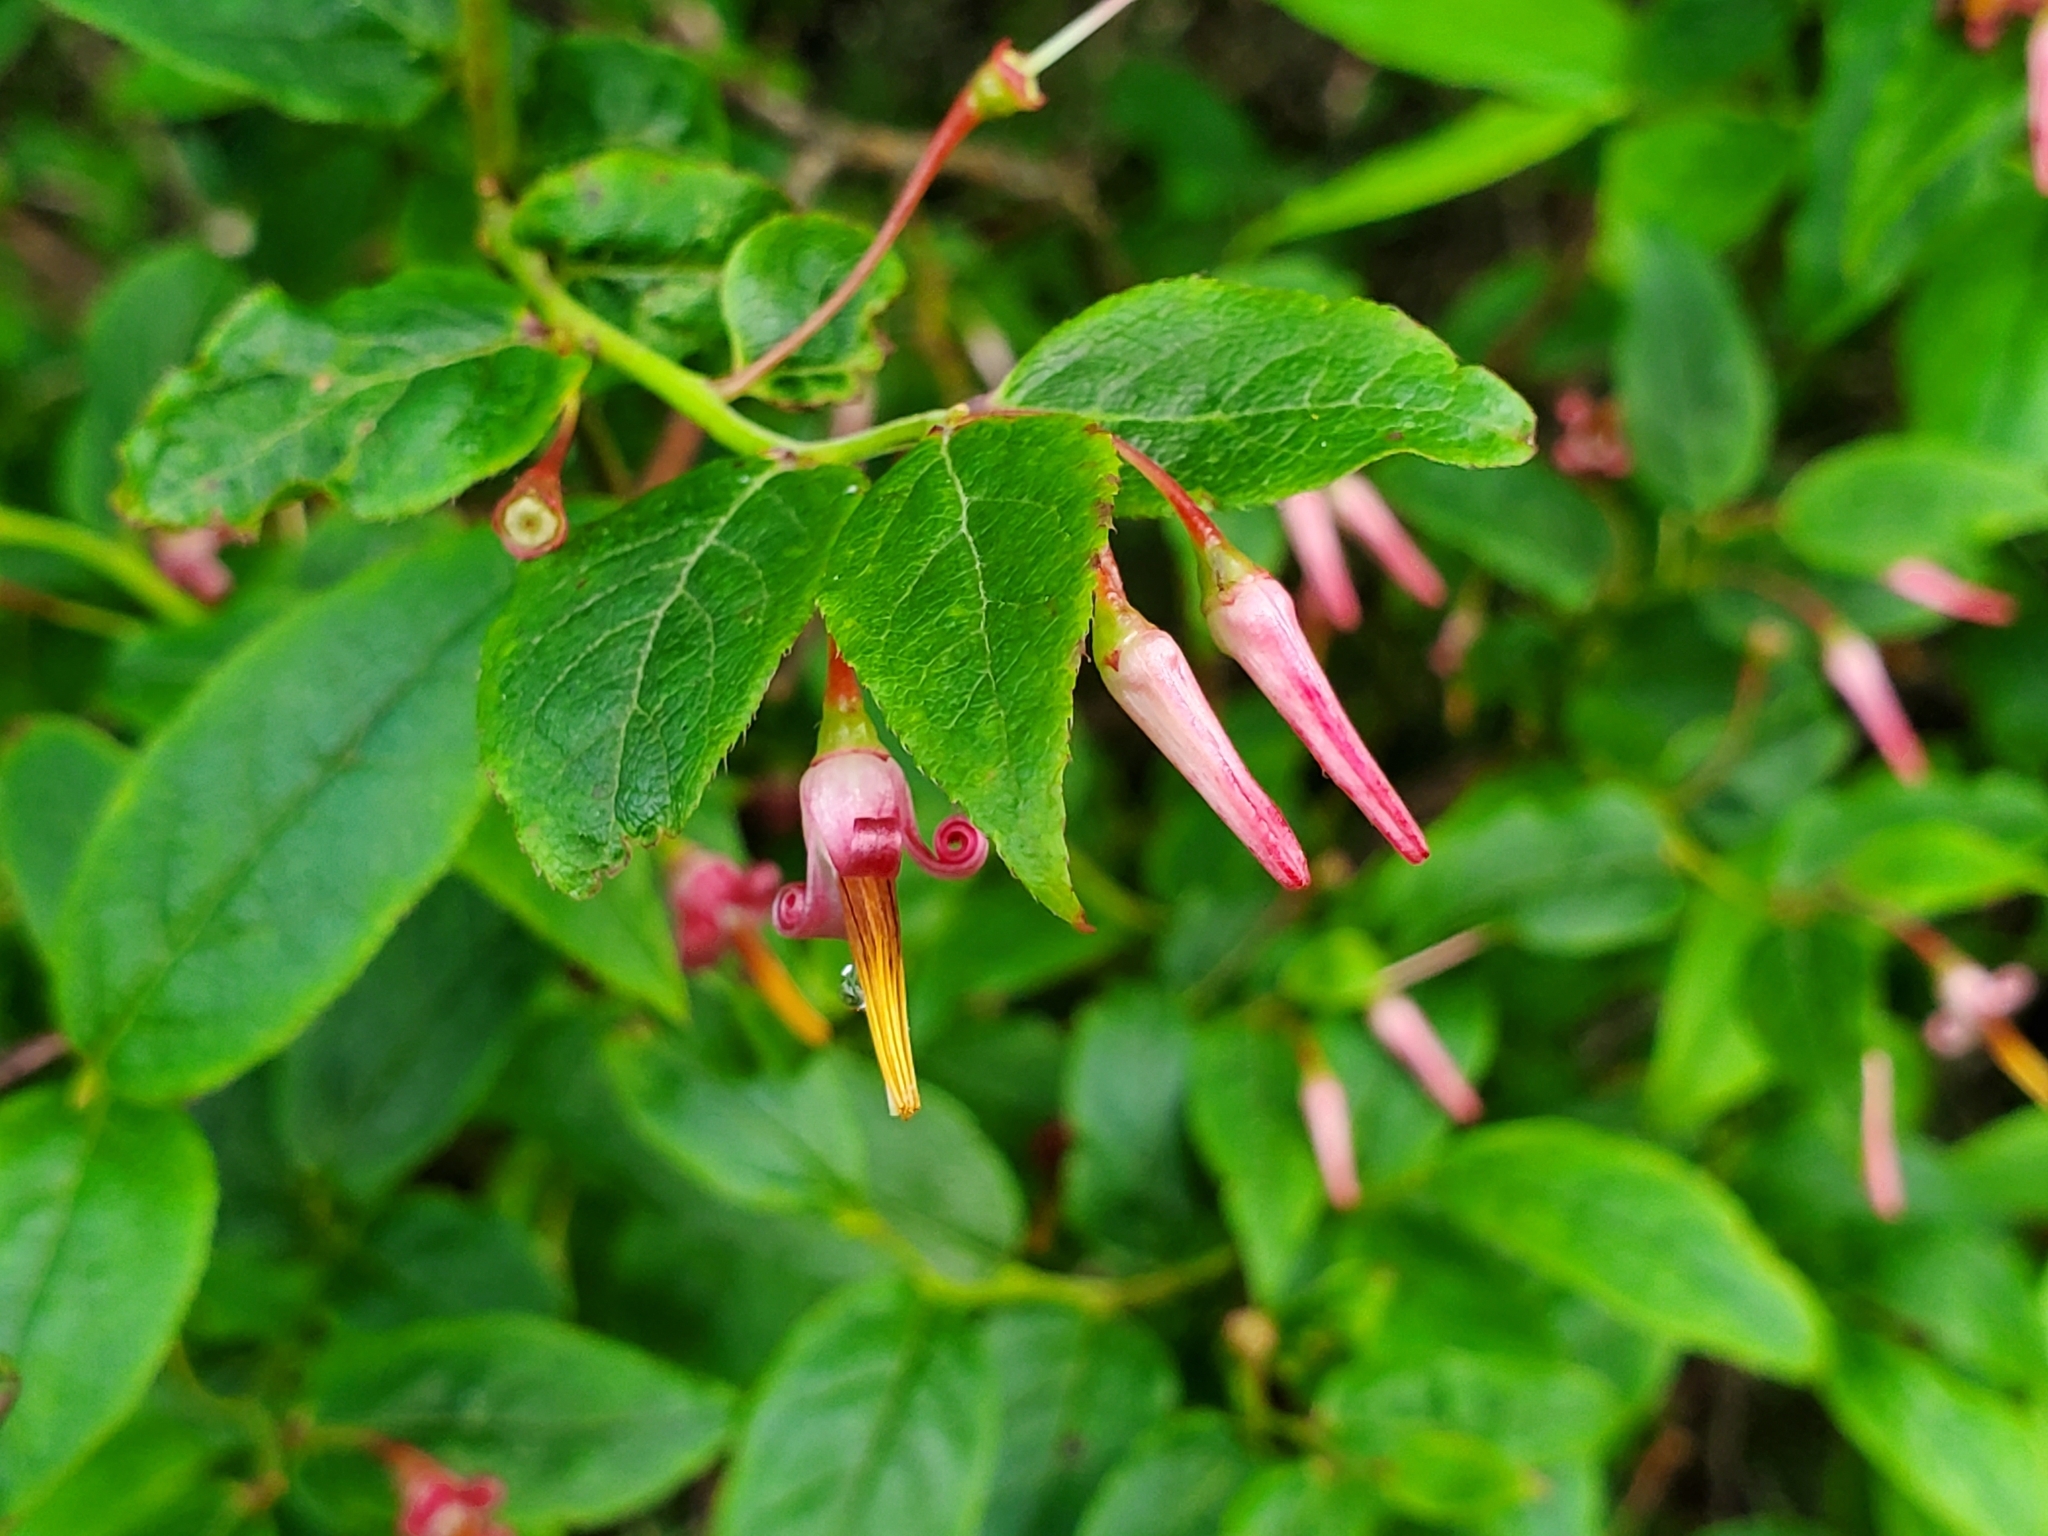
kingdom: Plantae
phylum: Tracheophyta
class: Magnoliopsida
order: Ericales
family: Ericaceae
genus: Vaccinium
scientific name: Vaccinium erythrocarpum
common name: Bearberry
